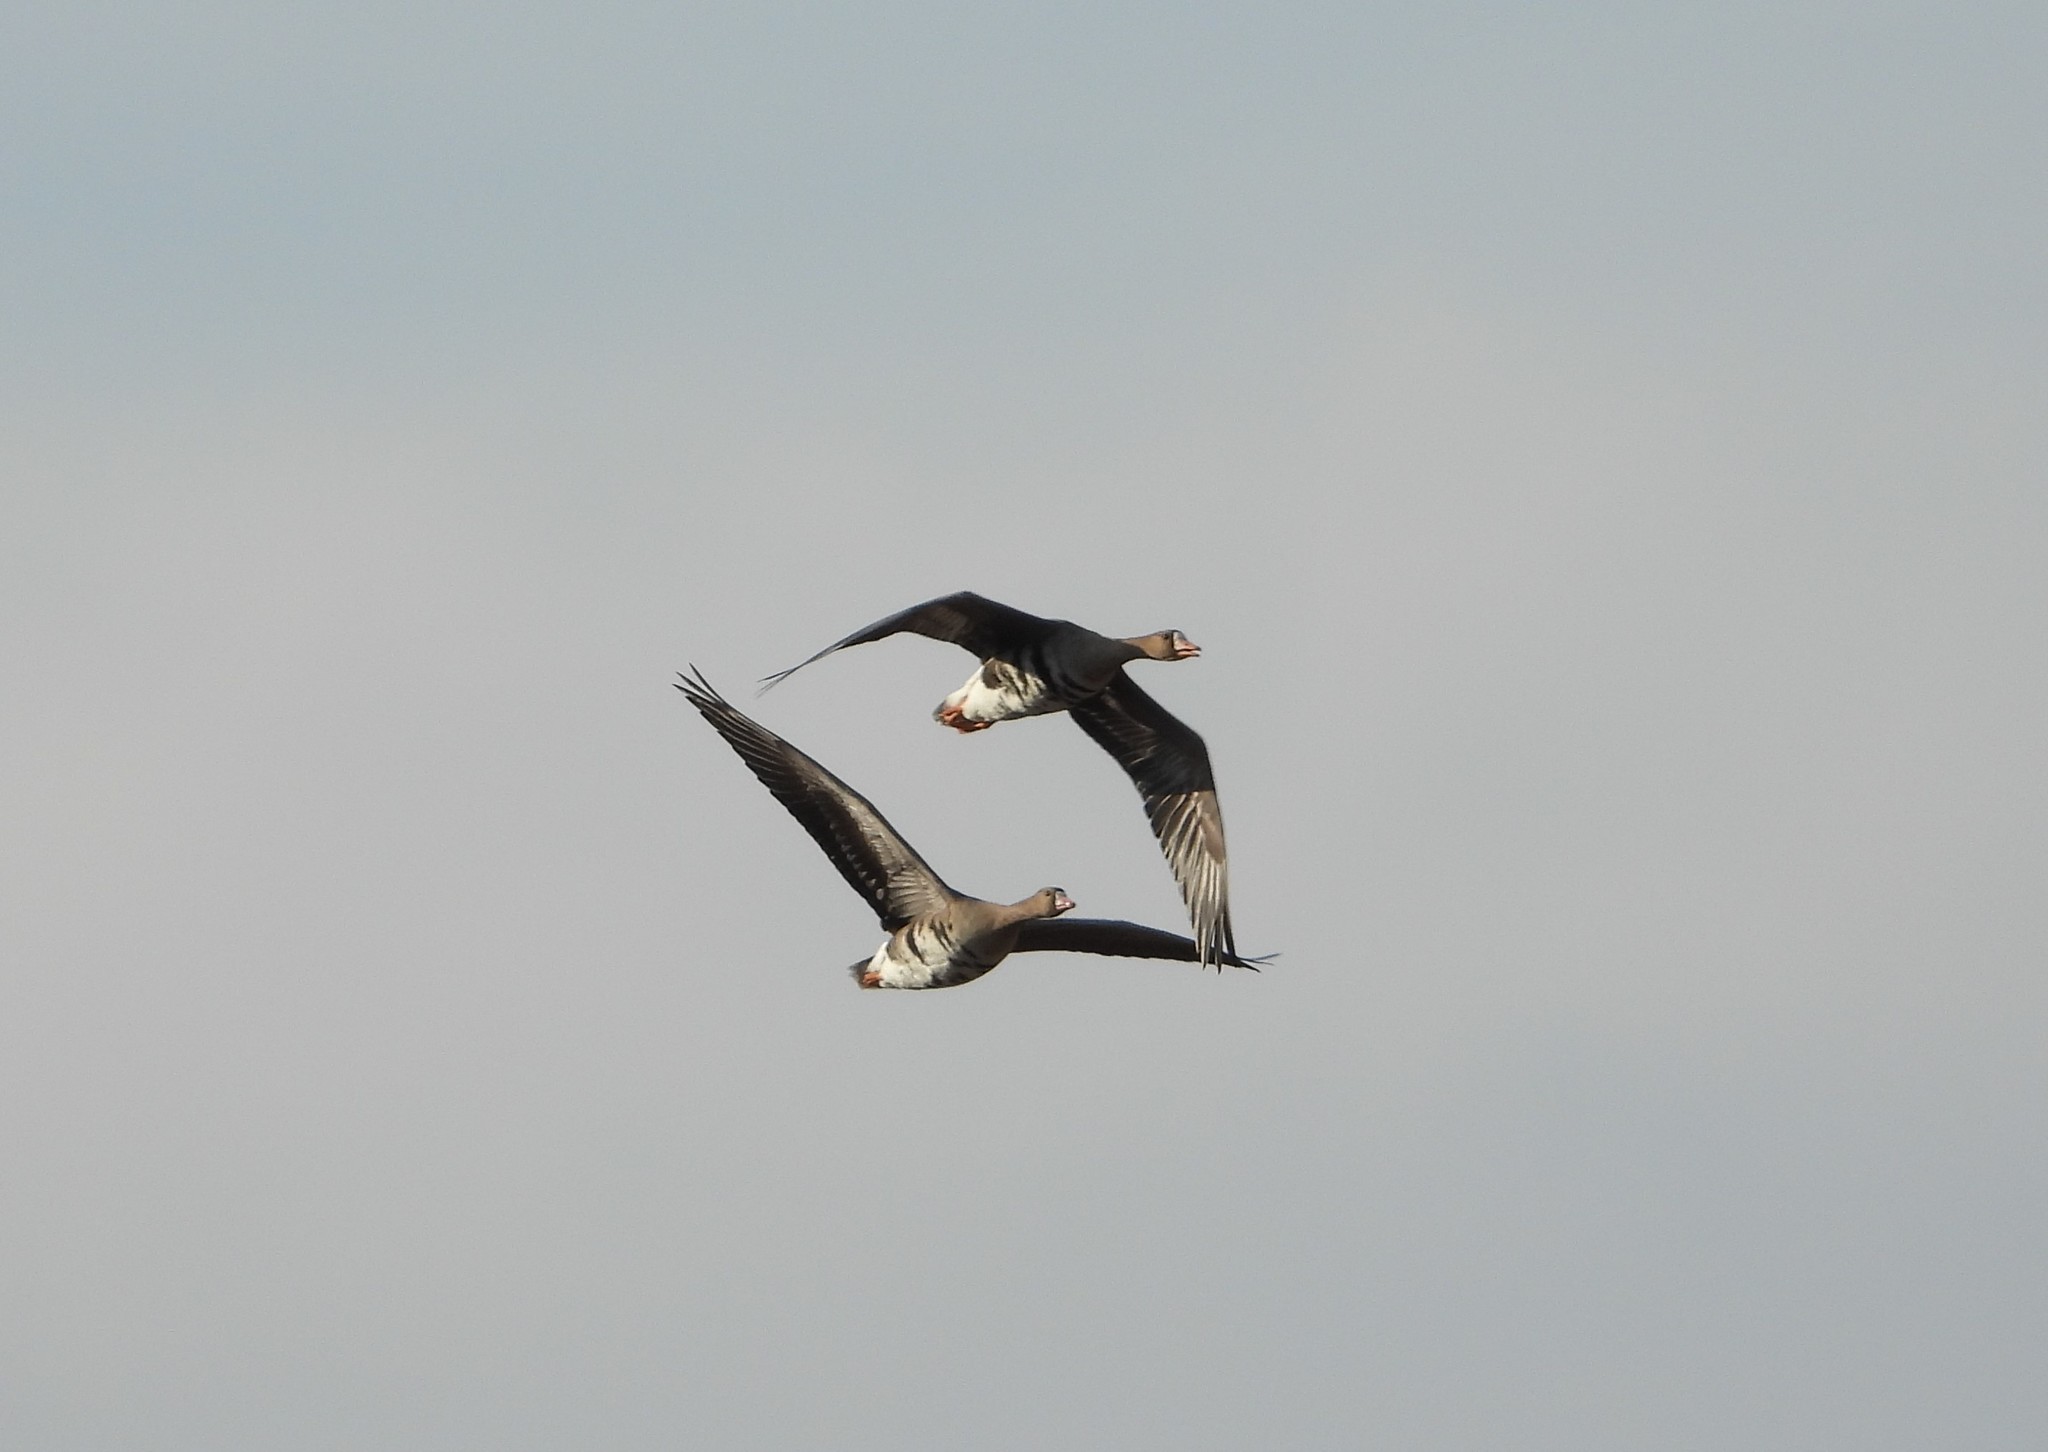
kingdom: Animalia
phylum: Chordata
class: Aves
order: Anseriformes
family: Anatidae
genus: Anser
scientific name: Anser albifrons
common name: Greater white-fronted goose
